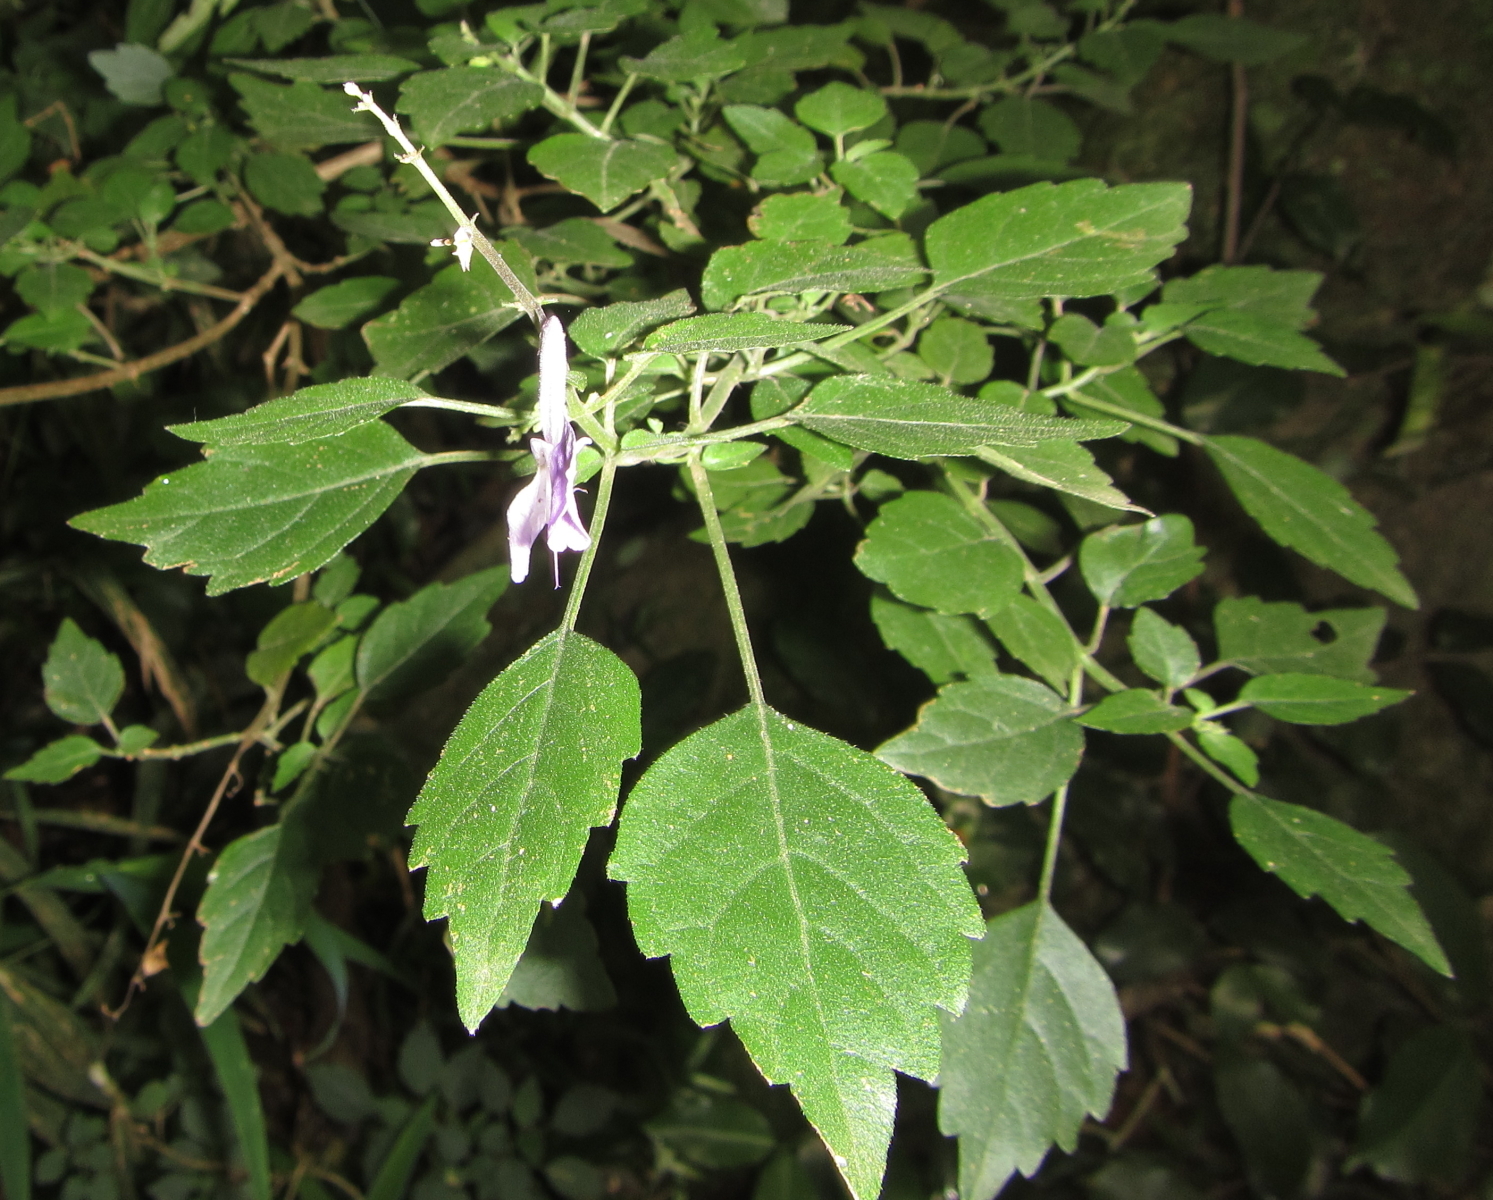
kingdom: Plantae
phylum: Tracheophyta
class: Magnoliopsida
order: Lamiales
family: Lamiaceae
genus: Plectranthus
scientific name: Plectranthus saccatus
